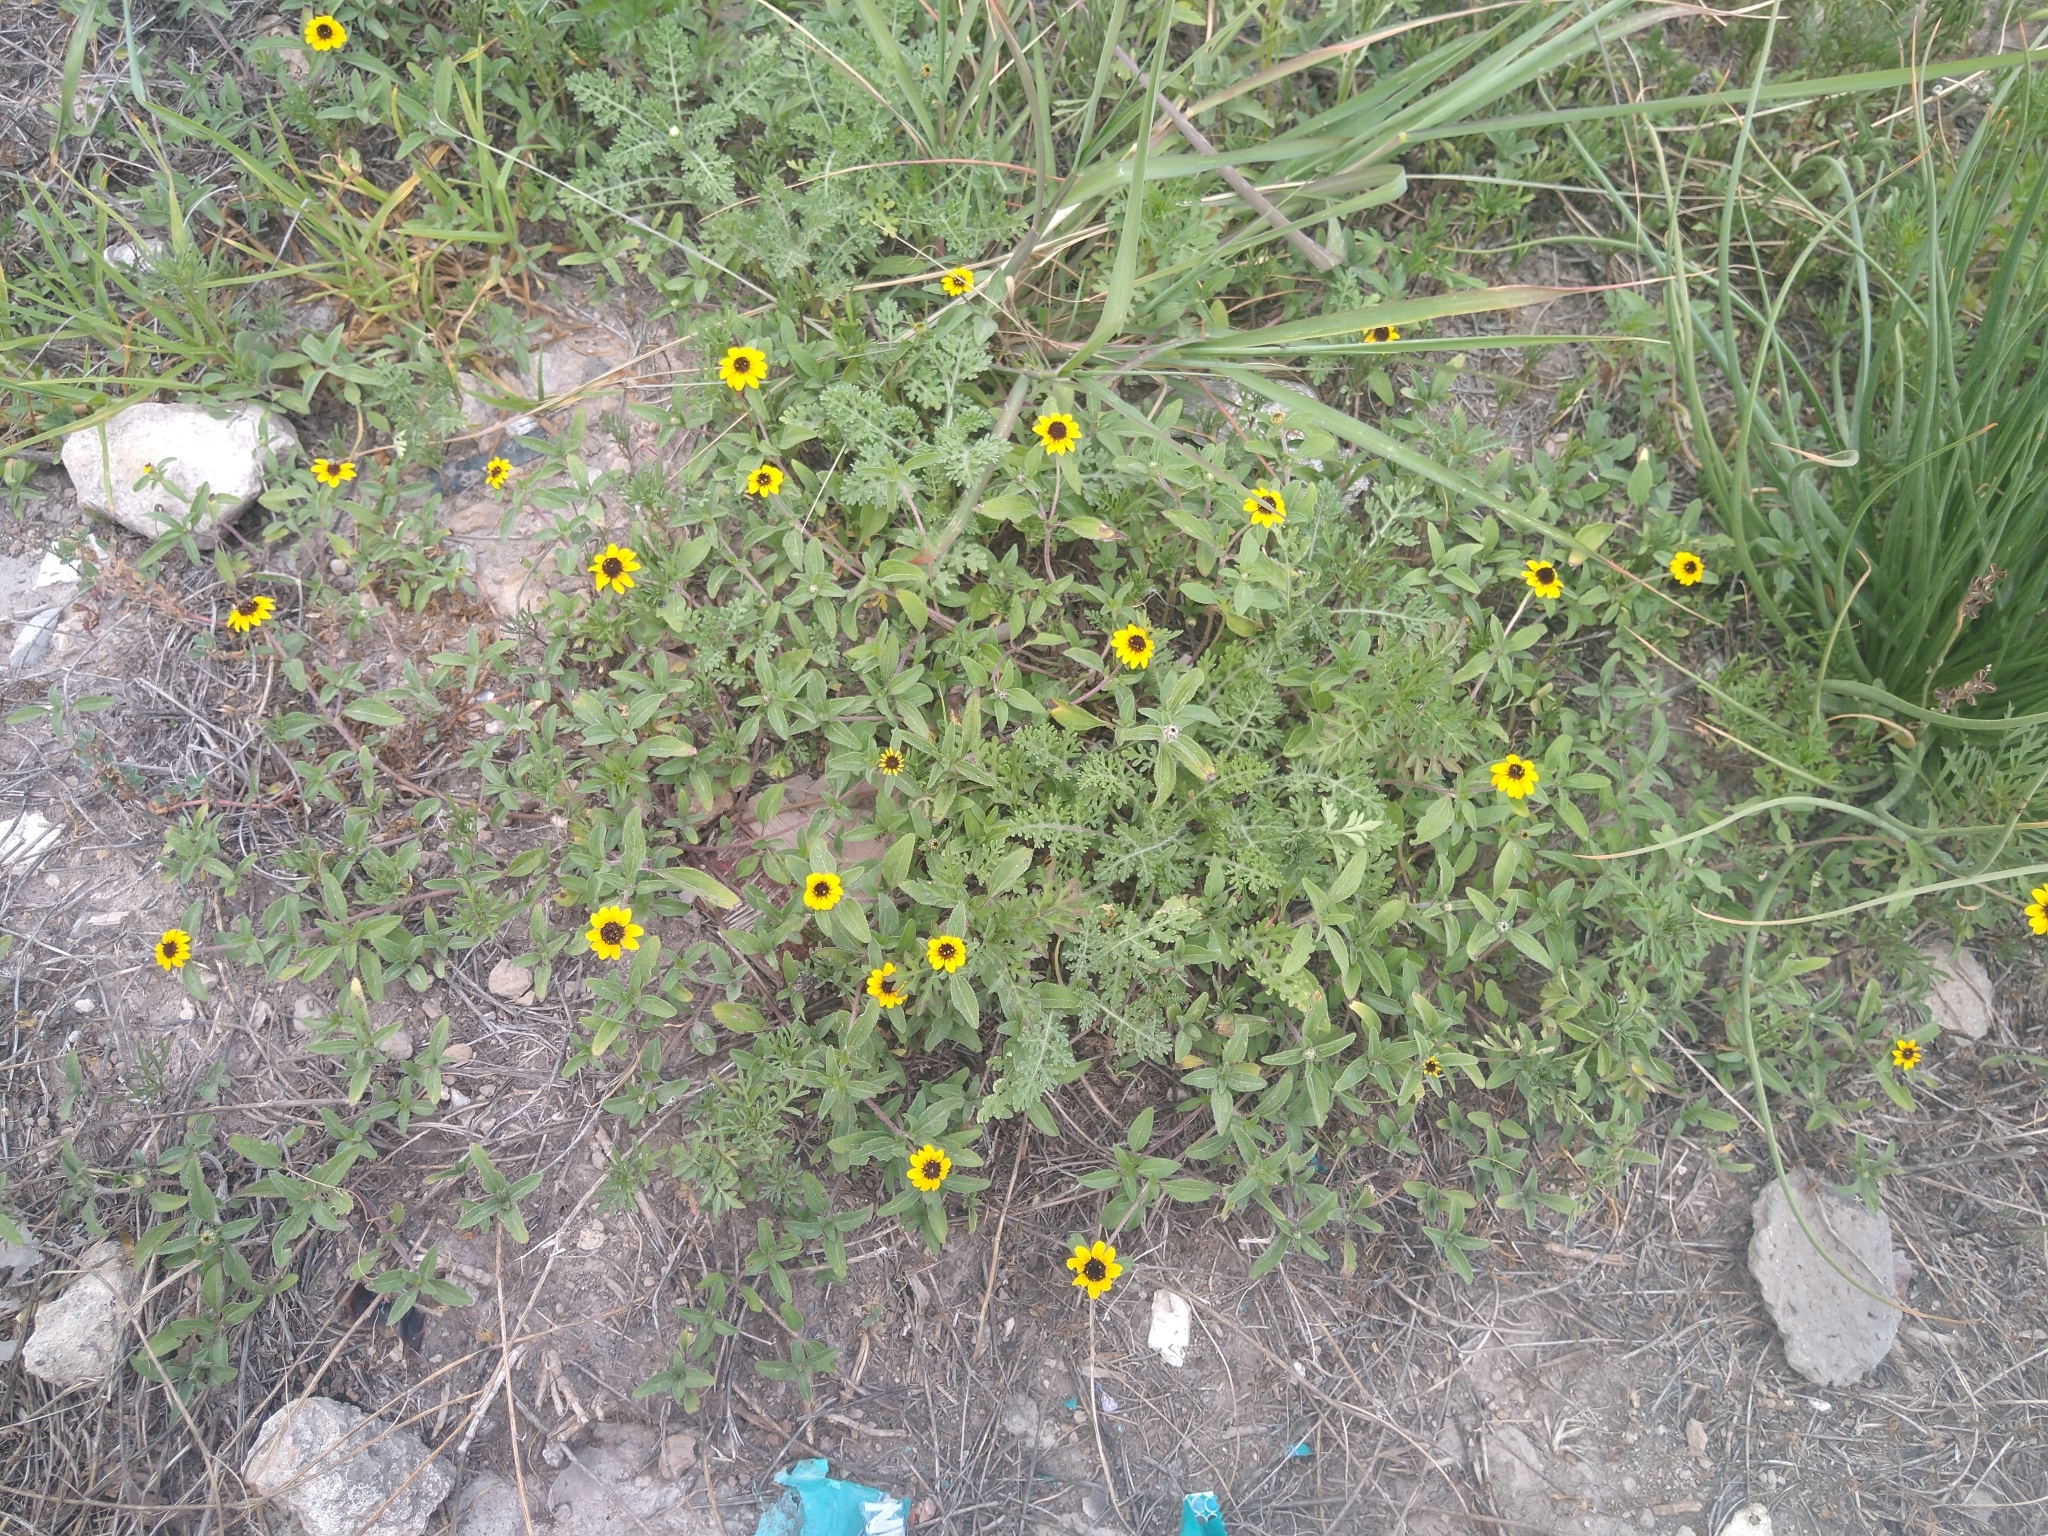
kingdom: Plantae
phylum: Tracheophyta
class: Magnoliopsida
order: Asterales
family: Asteraceae
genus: Sanvitalia
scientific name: Sanvitalia procumbens
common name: Mexican creeping zinnia
